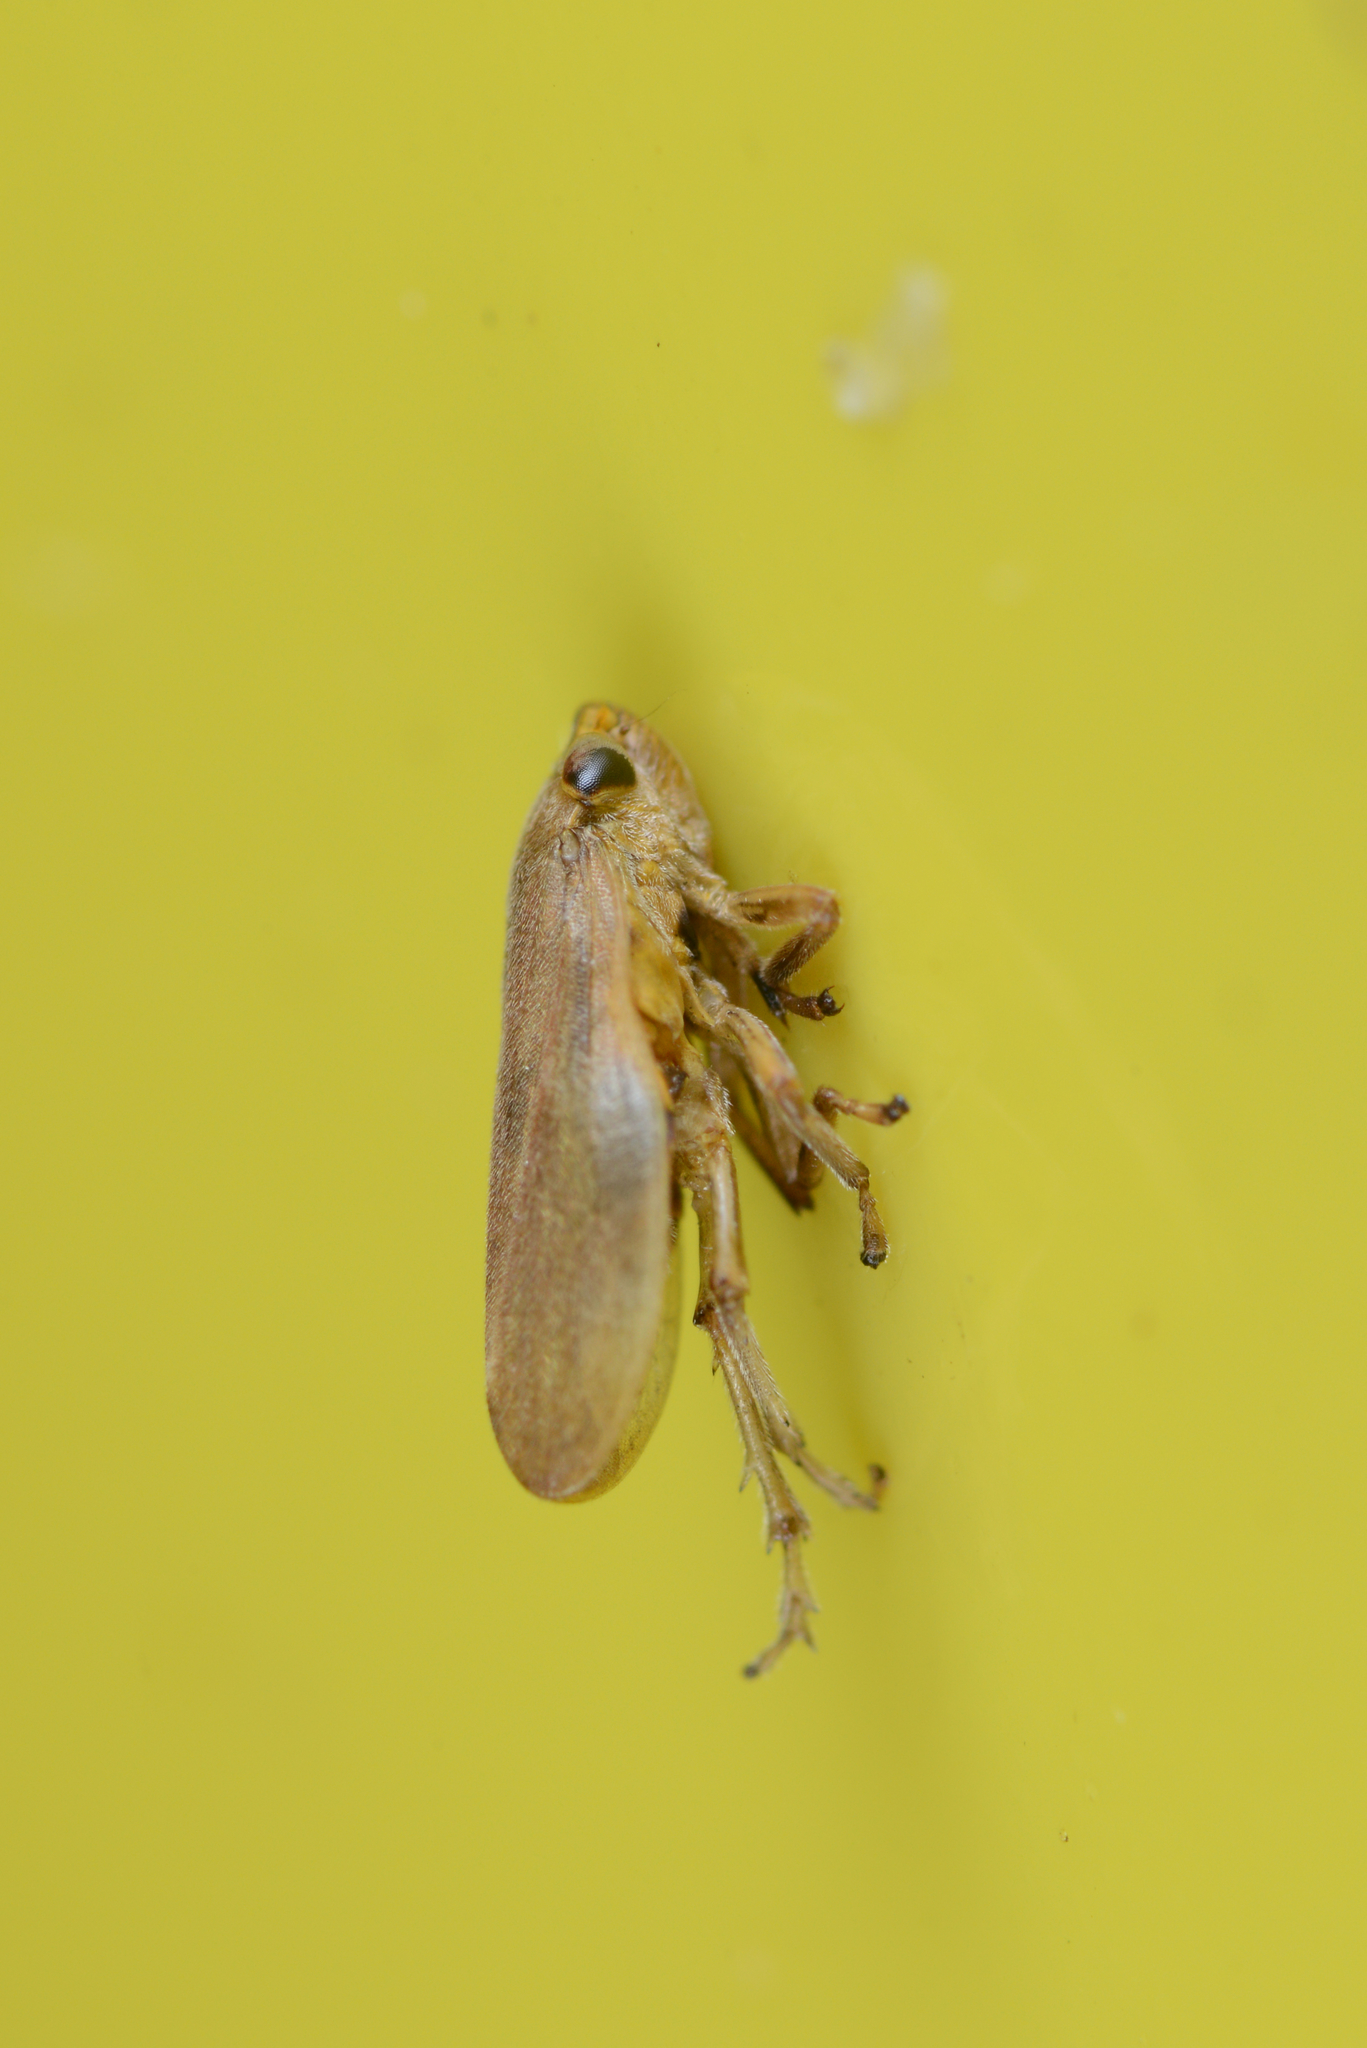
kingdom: Animalia
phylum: Arthropoda
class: Insecta
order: Hemiptera
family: Aphrophoridae
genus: Philaenus
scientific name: Philaenus spumarius
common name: Meadow spittlebug
